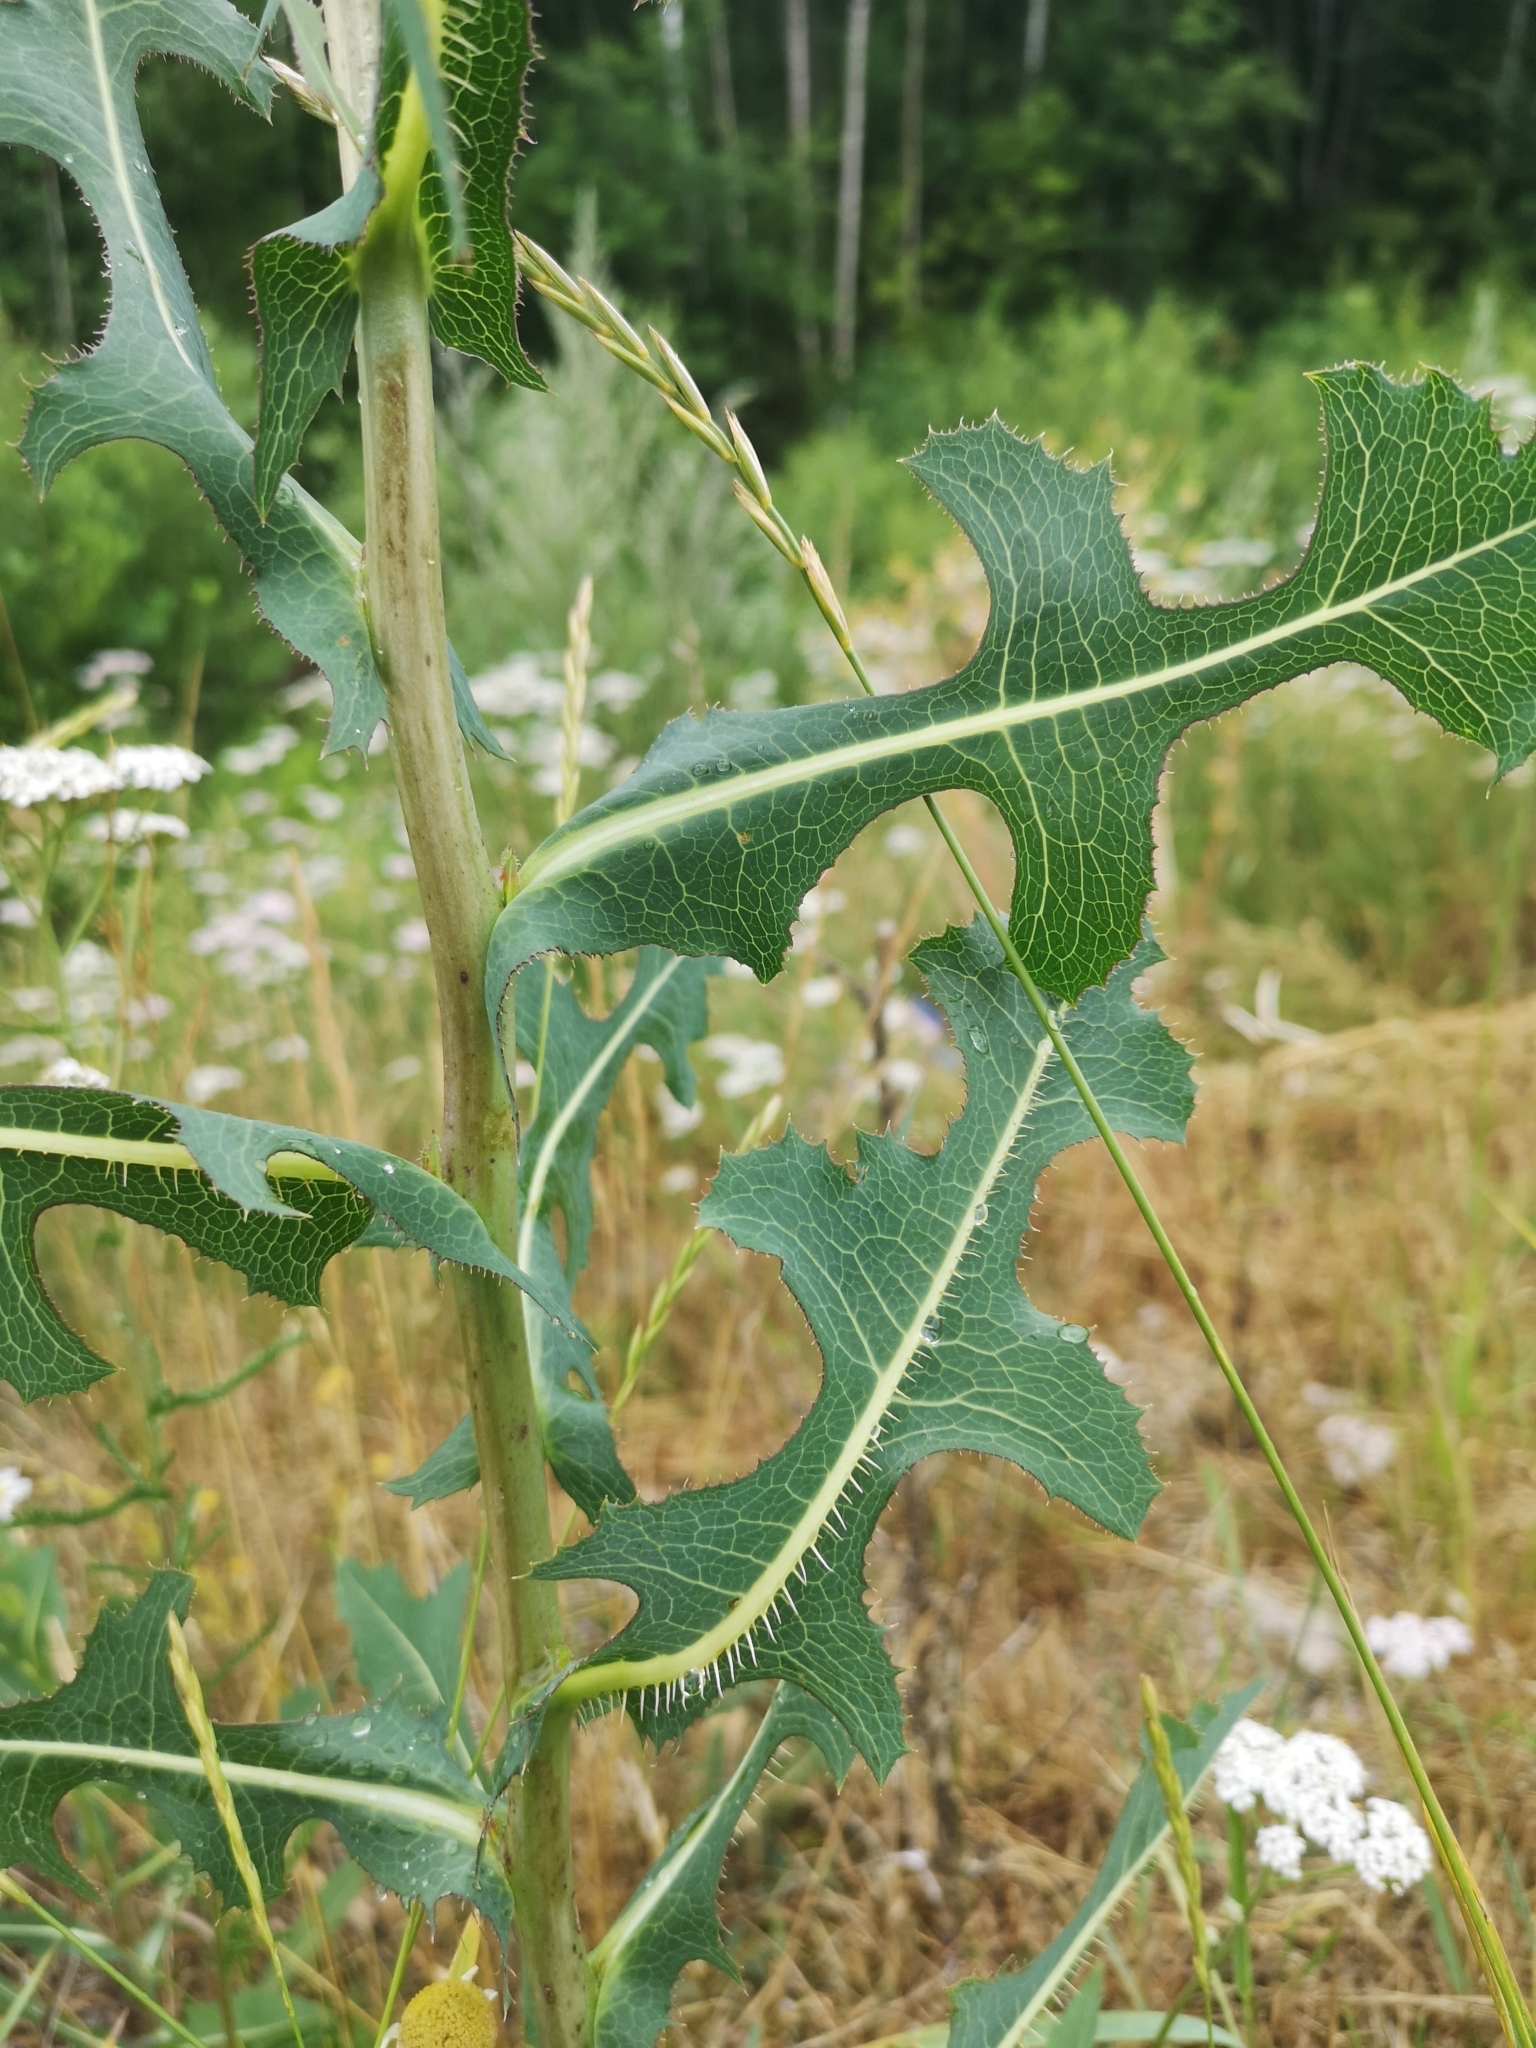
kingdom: Plantae
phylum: Tracheophyta
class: Magnoliopsida
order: Asterales
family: Asteraceae
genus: Lactuca
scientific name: Lactuca serriola
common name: Prickly lettuce
